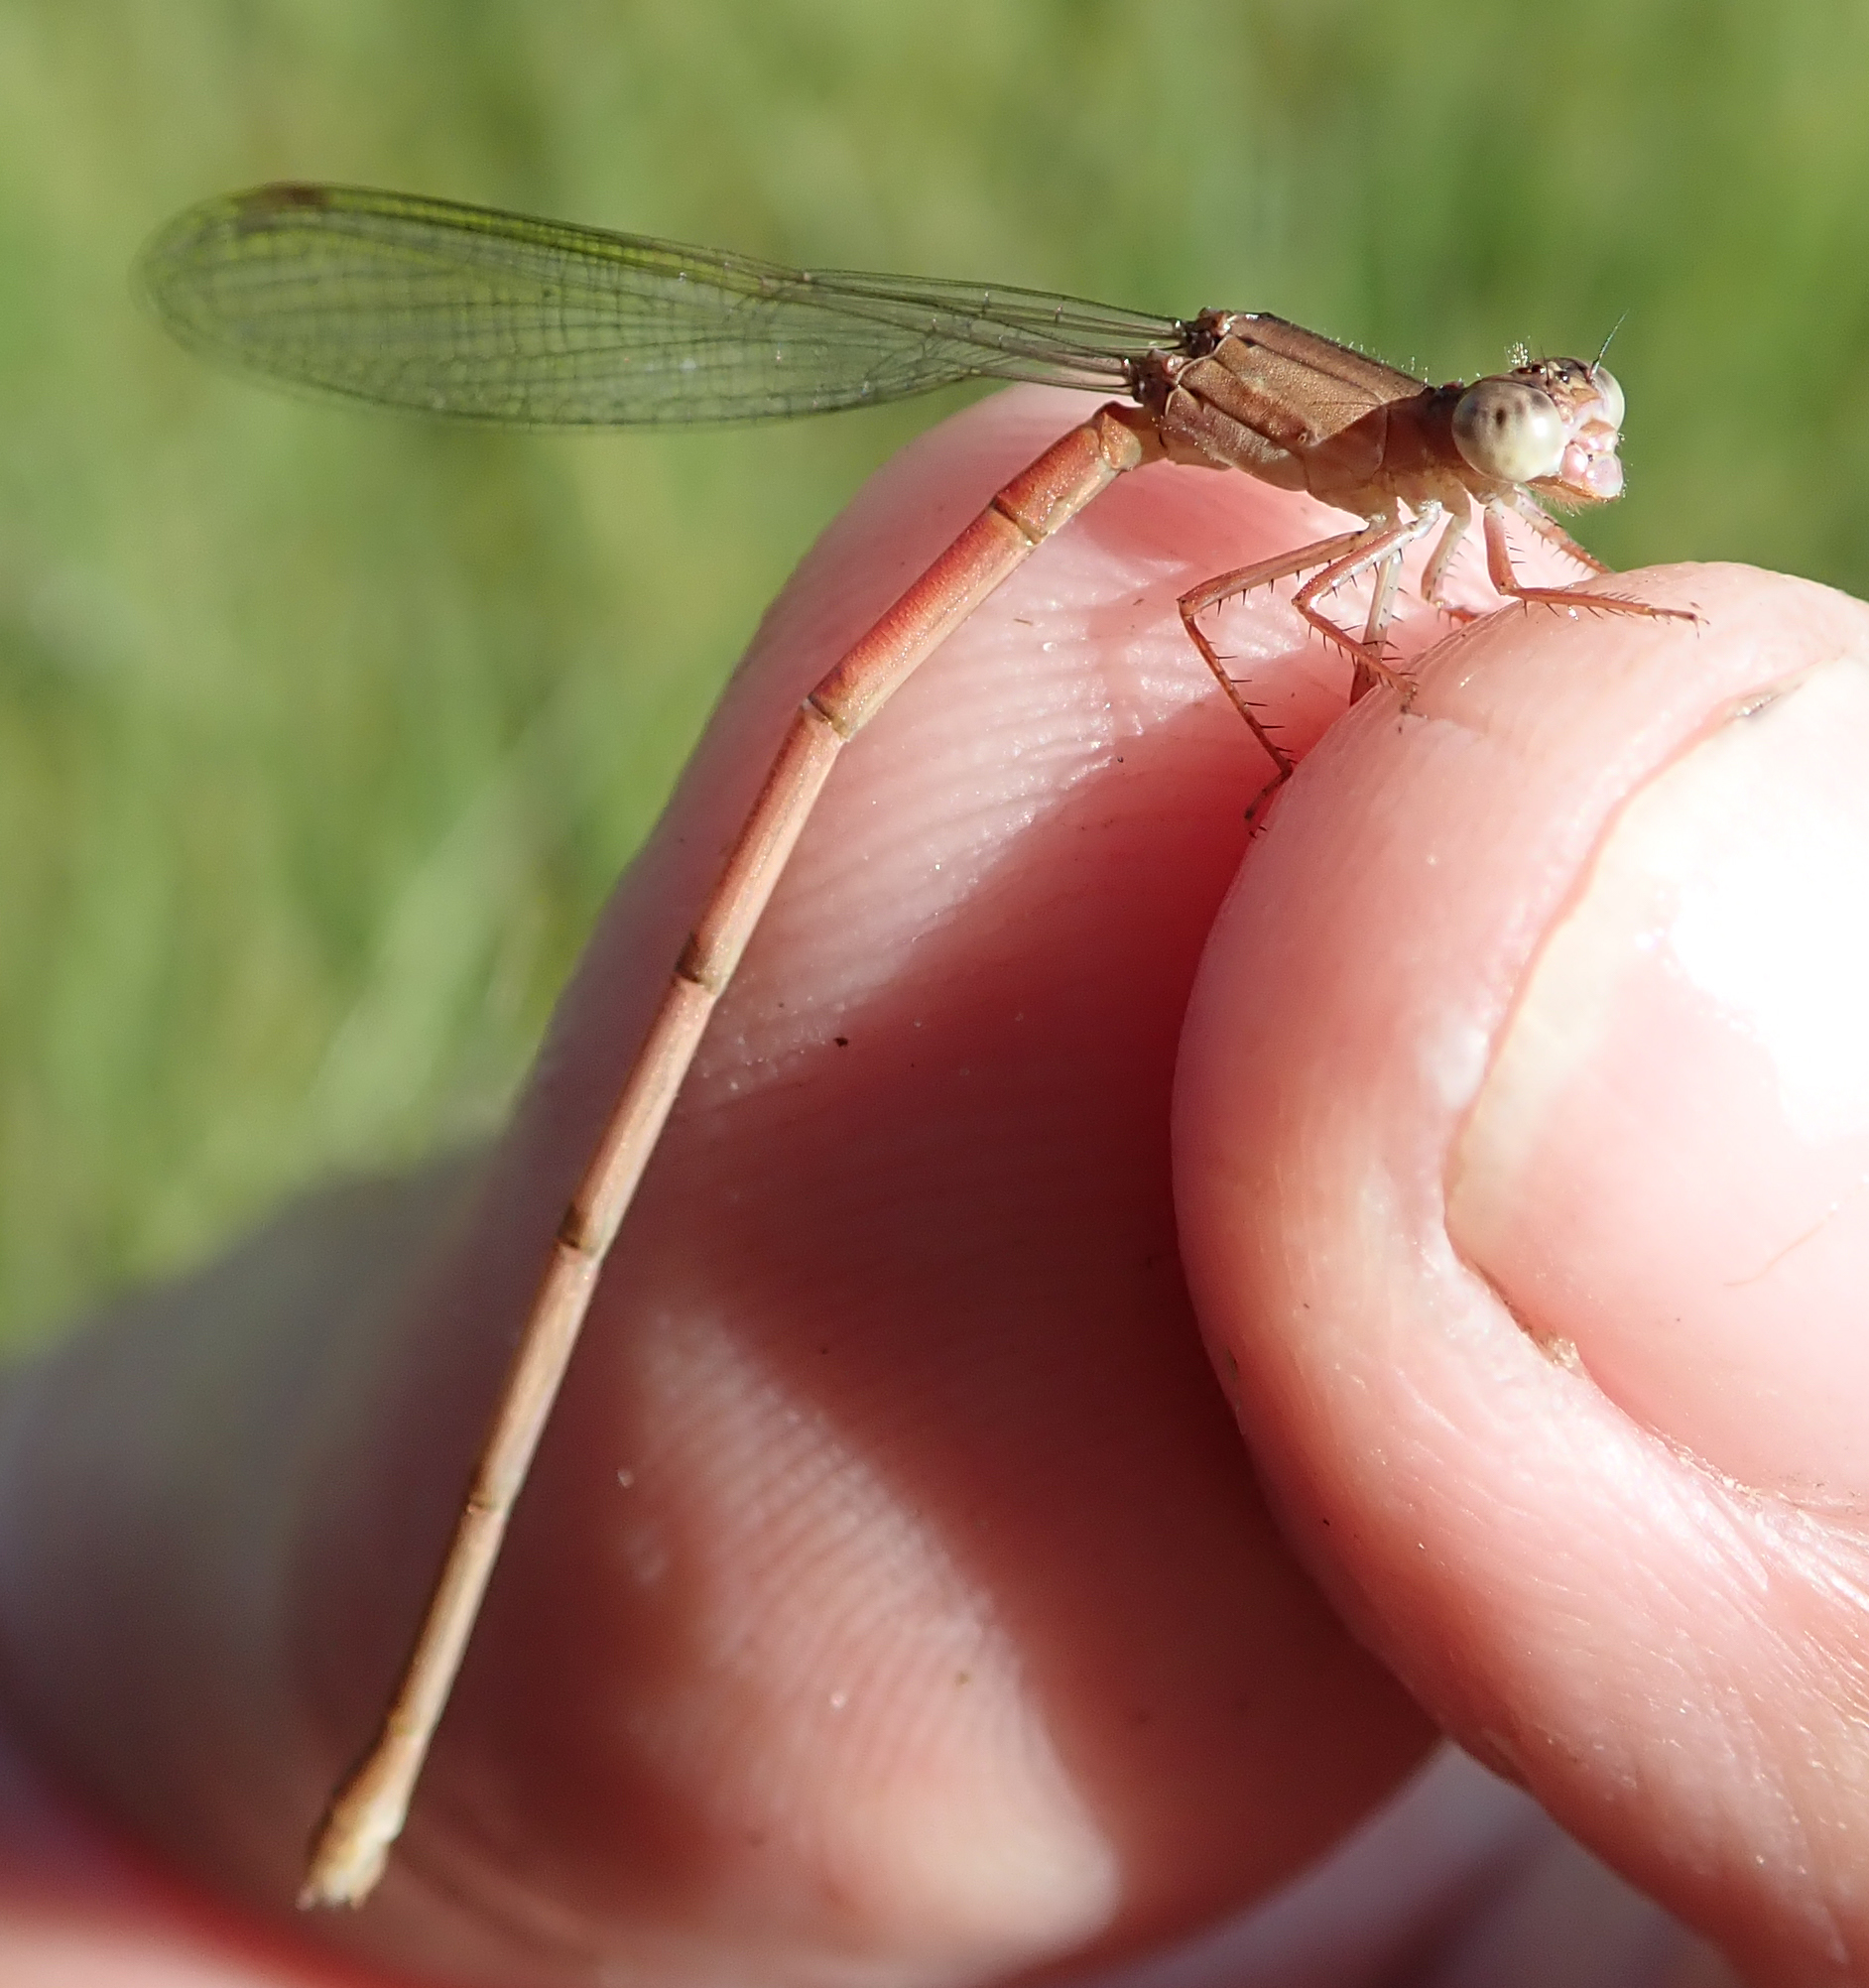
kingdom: Animalia
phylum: Arthropoda
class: Insecta
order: Odonata
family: Coenagrionidae
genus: Ceriagrion
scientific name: Ceriagrion katamborae
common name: White-faced waxtail
